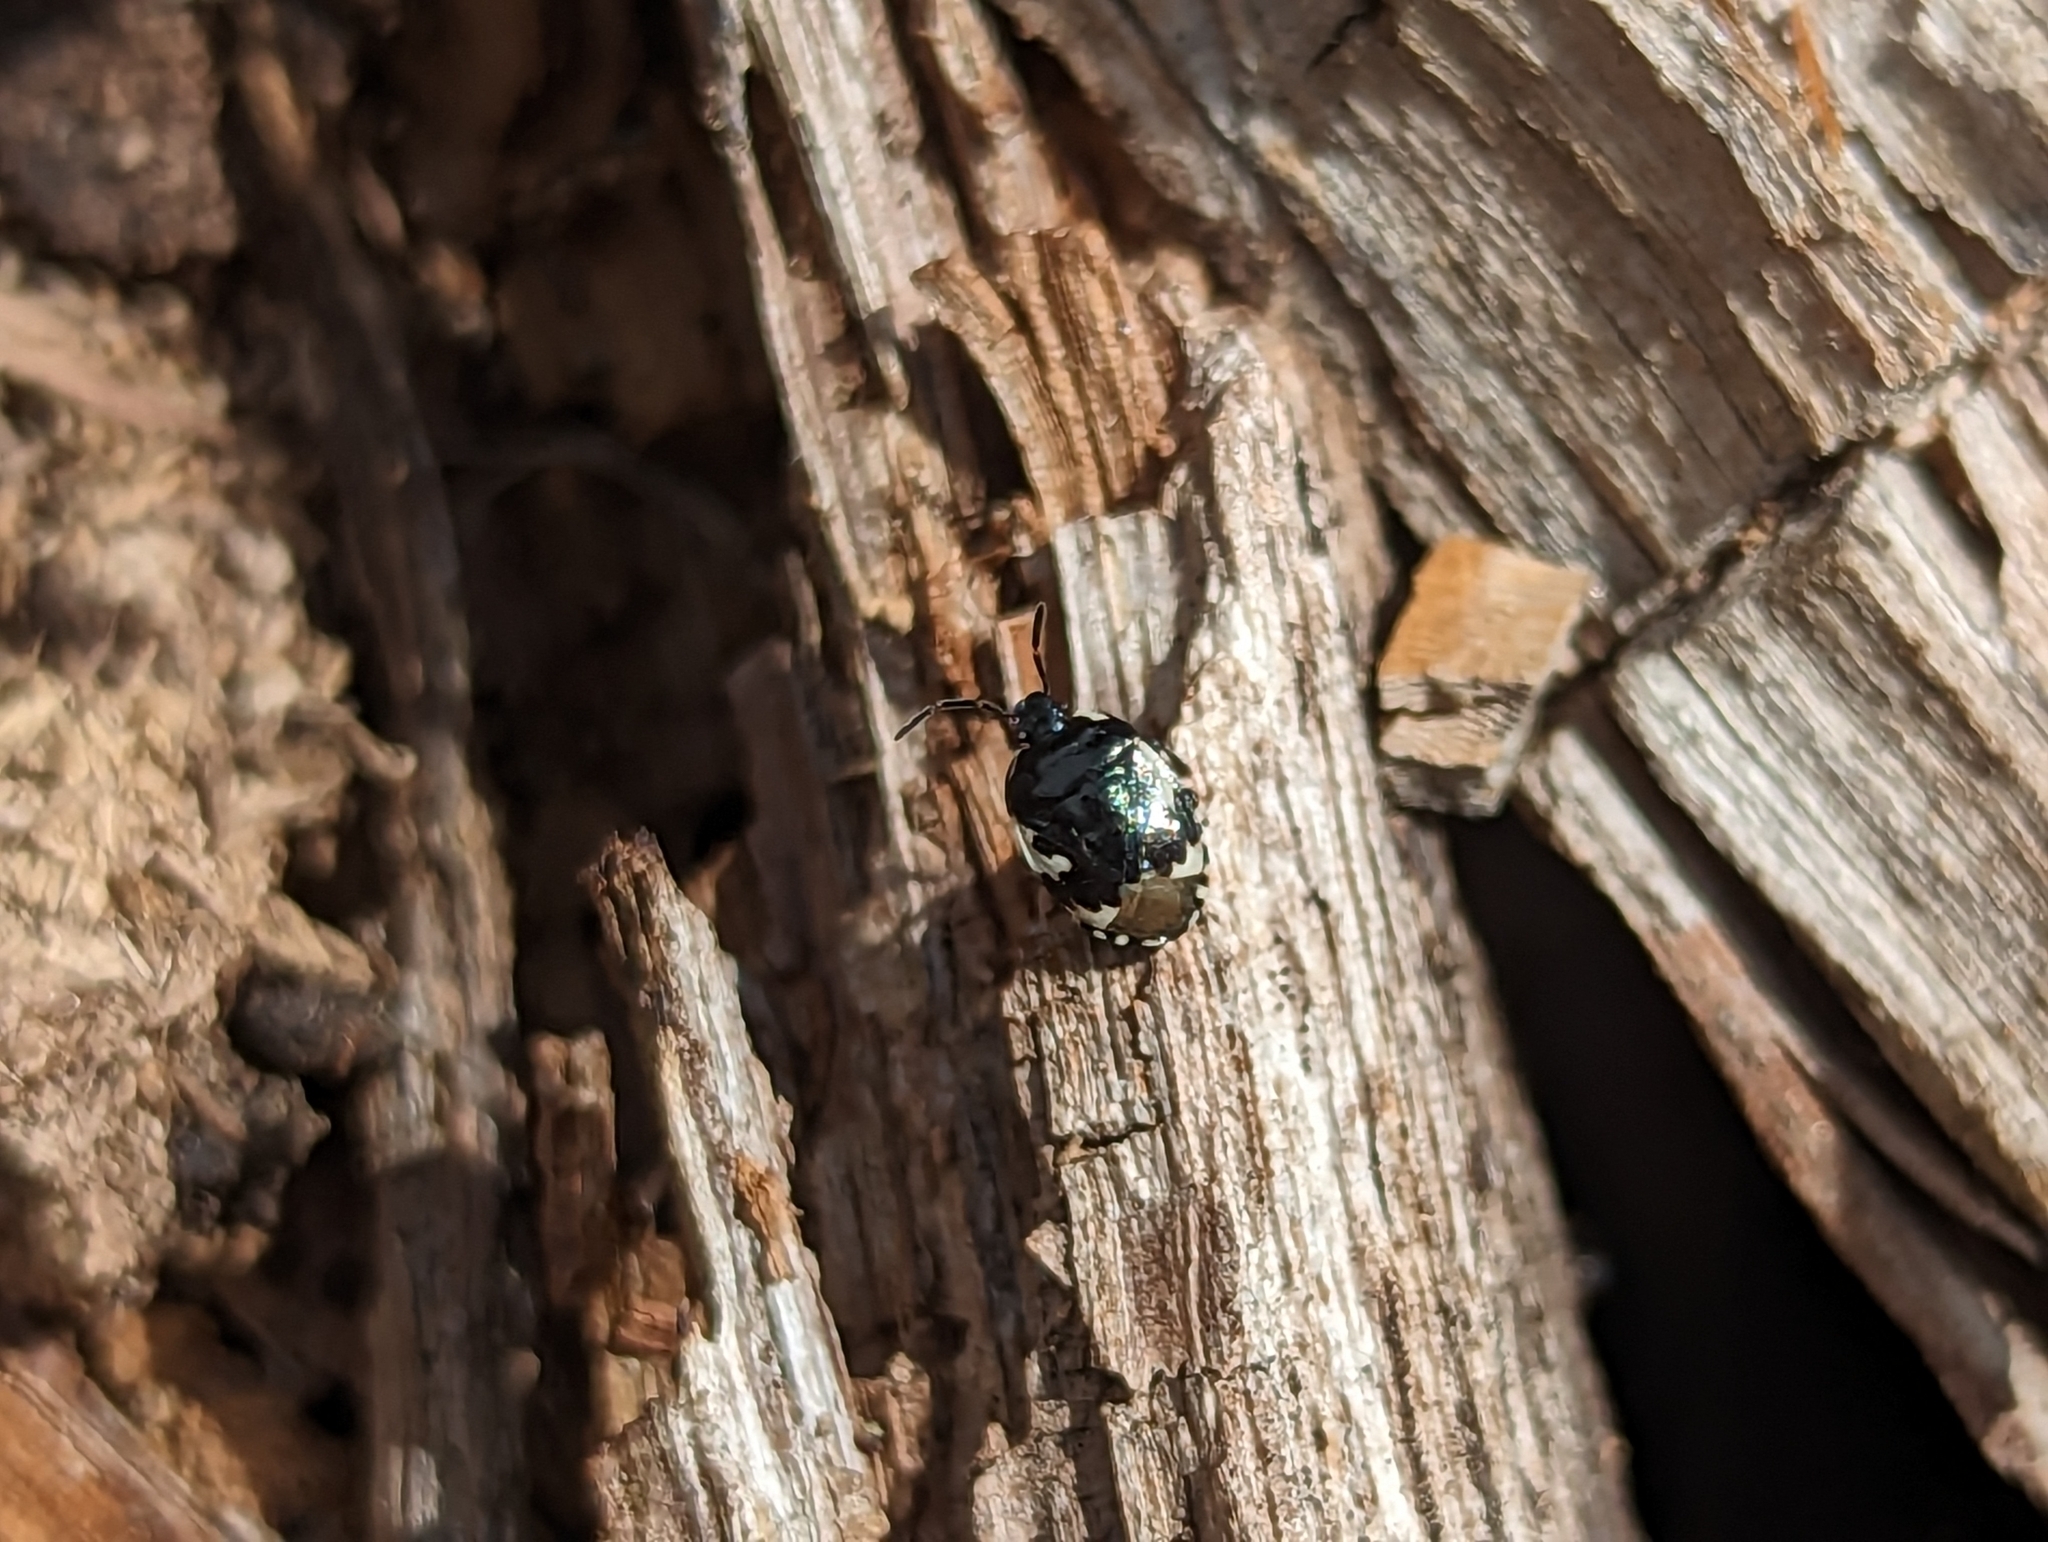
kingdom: Animalia
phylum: Arthropoda
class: Insecta
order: Hemiptera
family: Cydnidae
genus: Tritomegas
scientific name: Tritomegas bicolor
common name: Pied shieldbug
